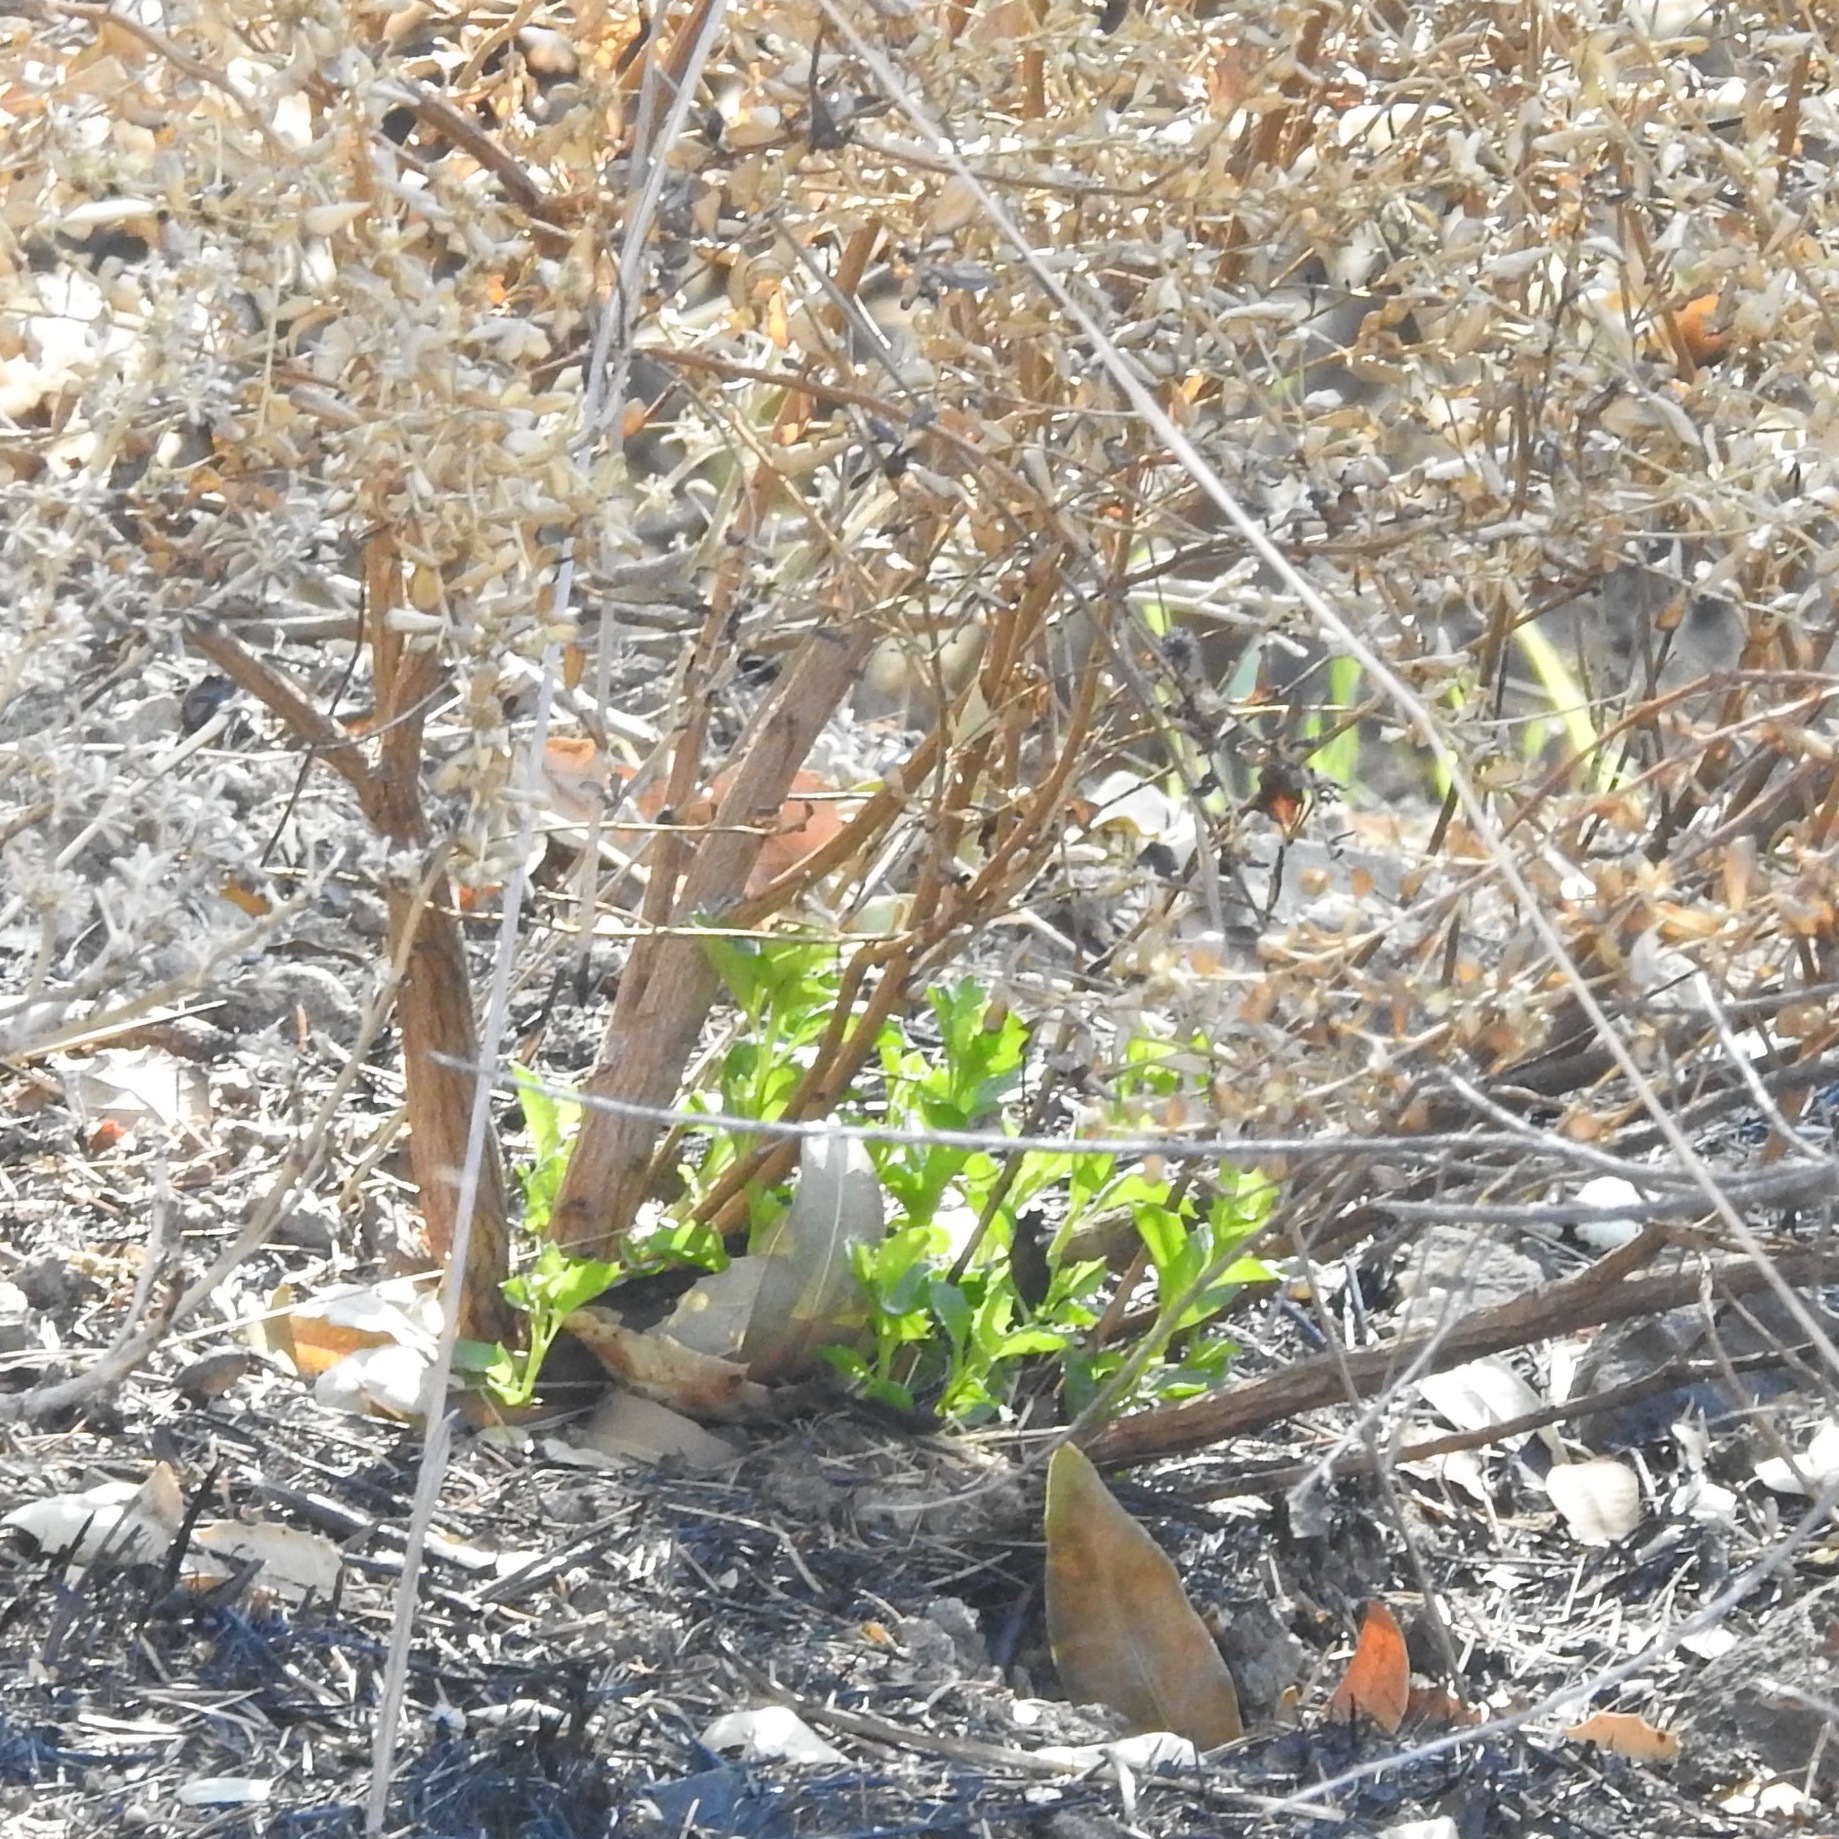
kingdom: Plantae
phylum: Tracheophyta
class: Magnoliopsida
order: Asterales
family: Asteraceae
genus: Baccharis
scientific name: Baccharis pilularis
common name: Coyotebrush
